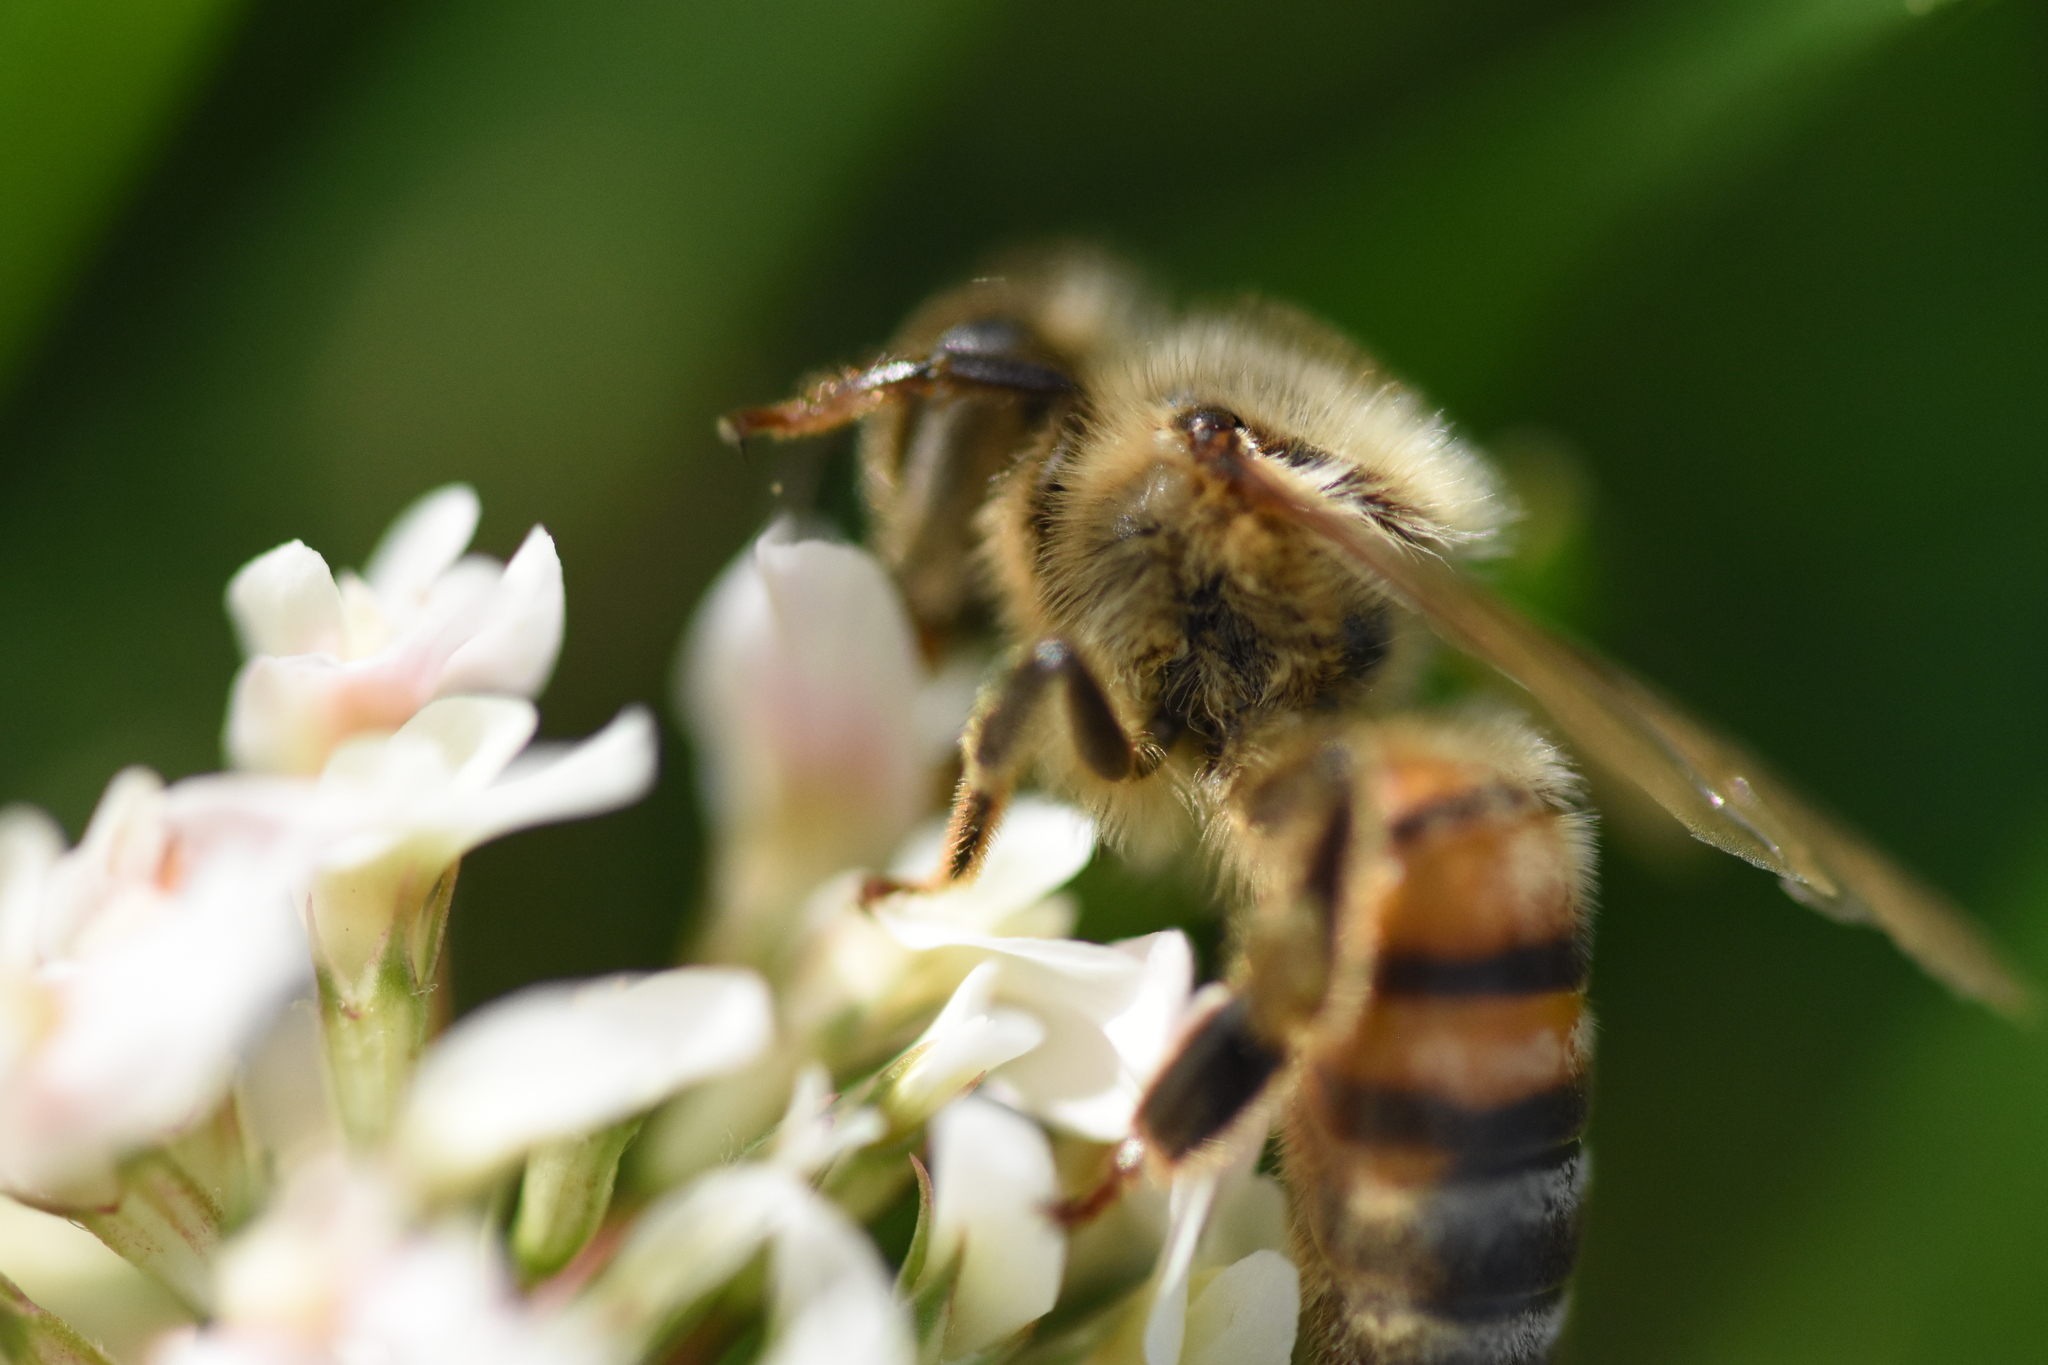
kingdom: Animalia
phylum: Arthropoda
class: Insecta
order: Hymenoptera
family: Apidae
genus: Apis
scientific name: Apis mellifera
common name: Honey bee
